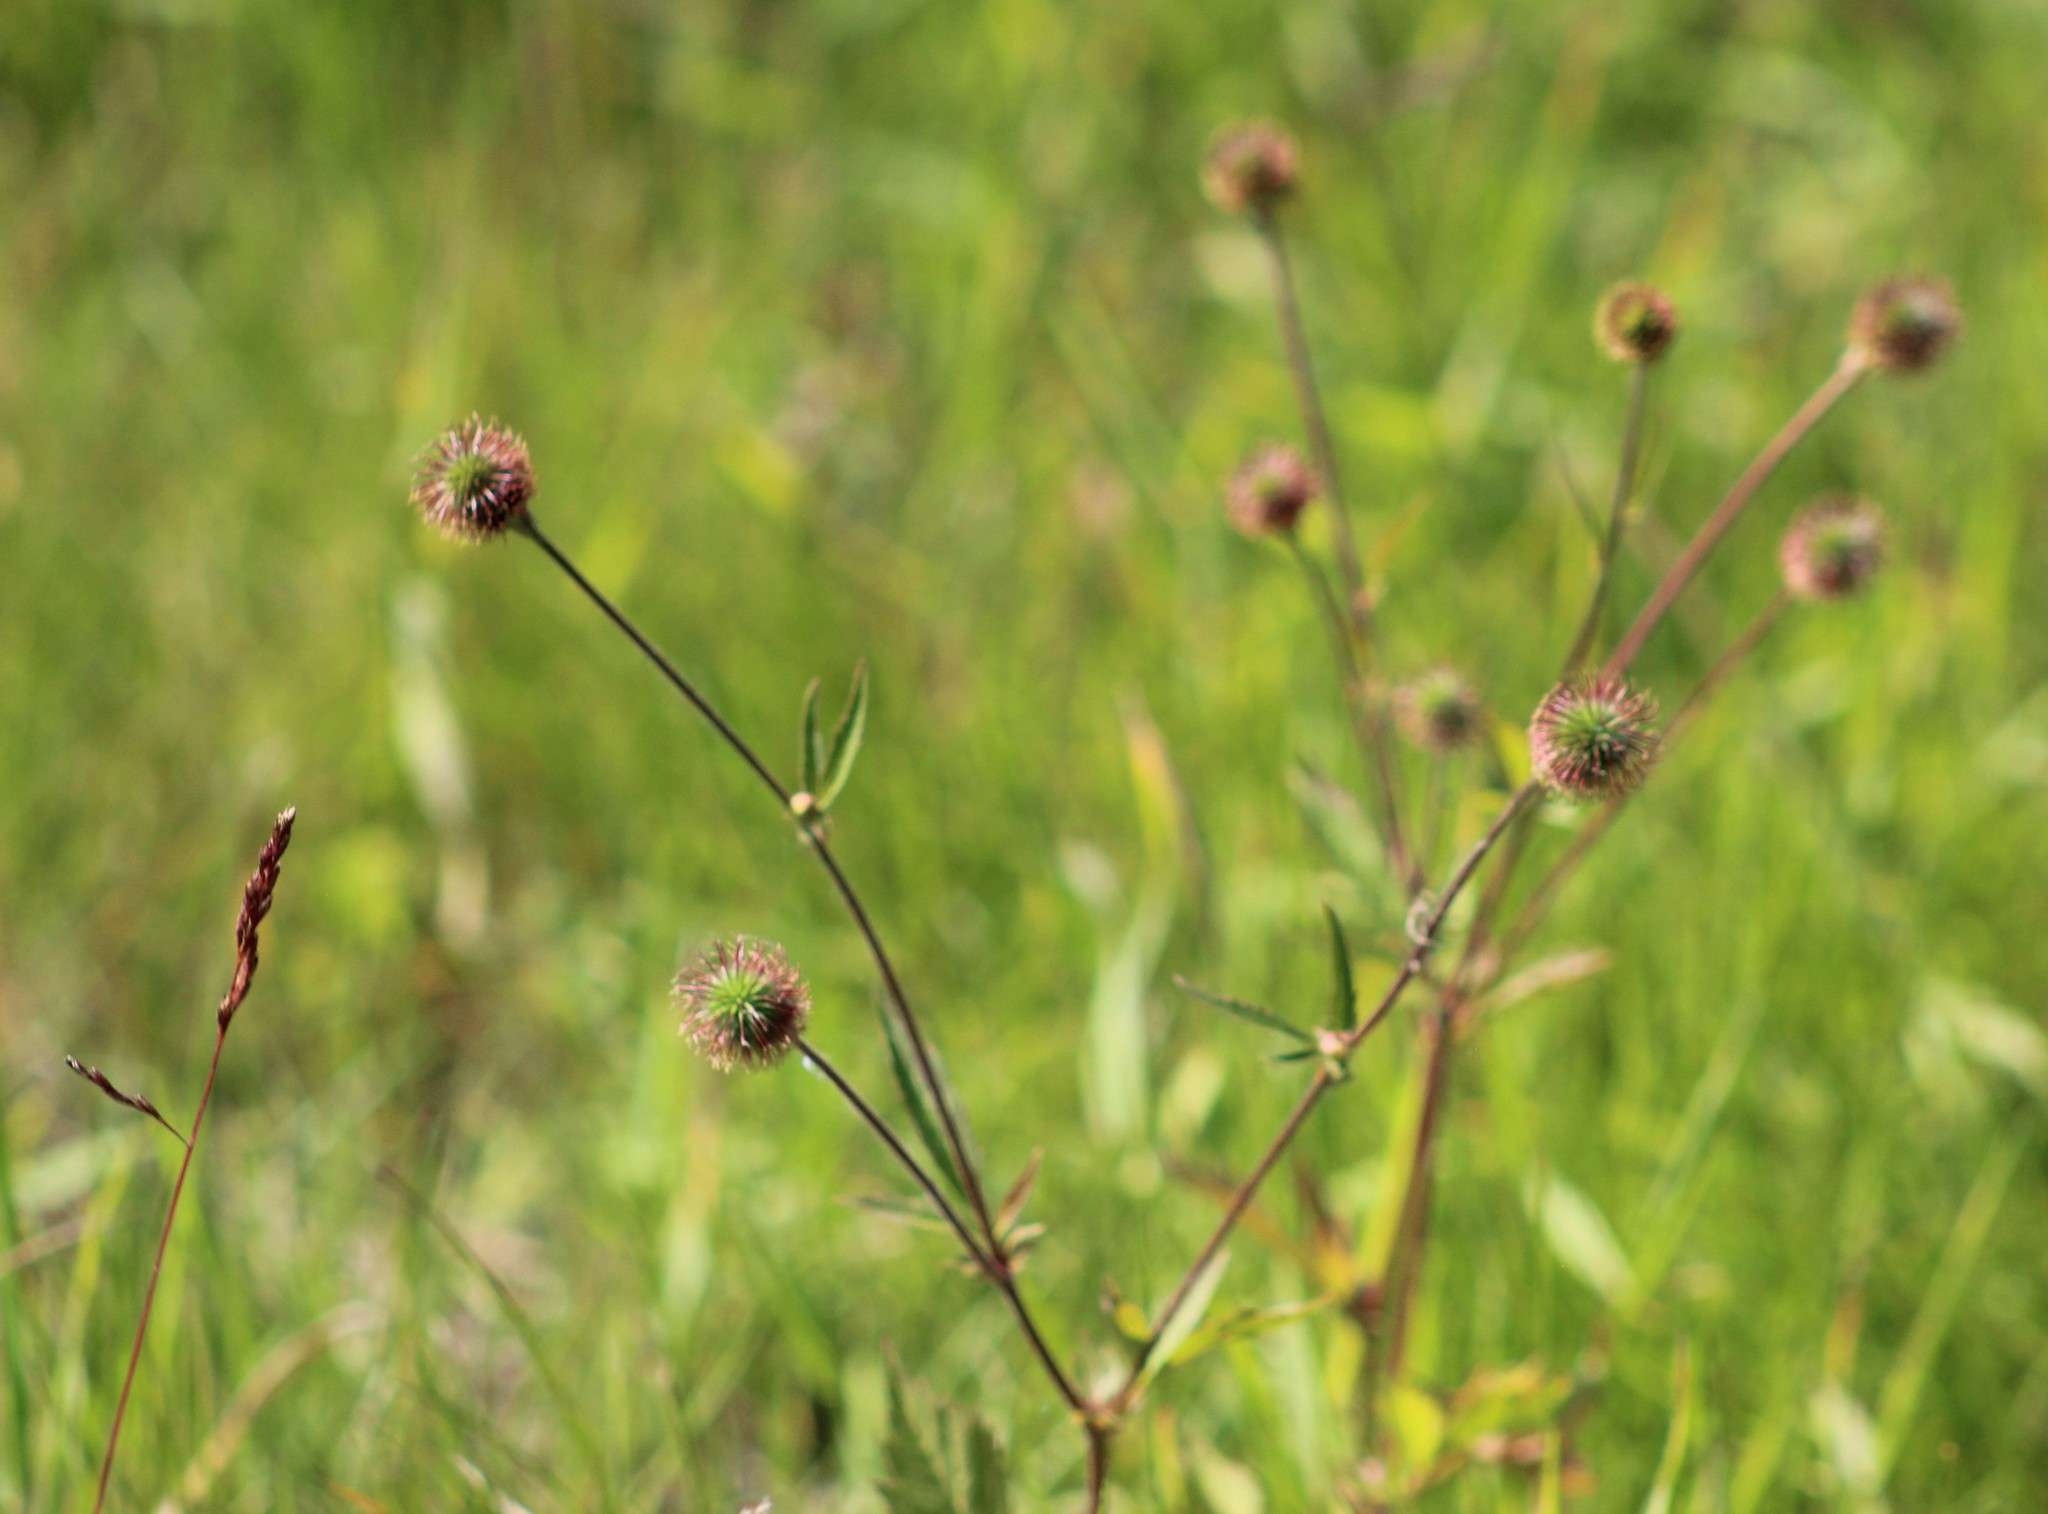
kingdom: Plantae
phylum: Tracheophyta
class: Magnoliopsida
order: Rosales
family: Rosaceae
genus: Geum
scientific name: Geum aleppicum
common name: Yellow avens
